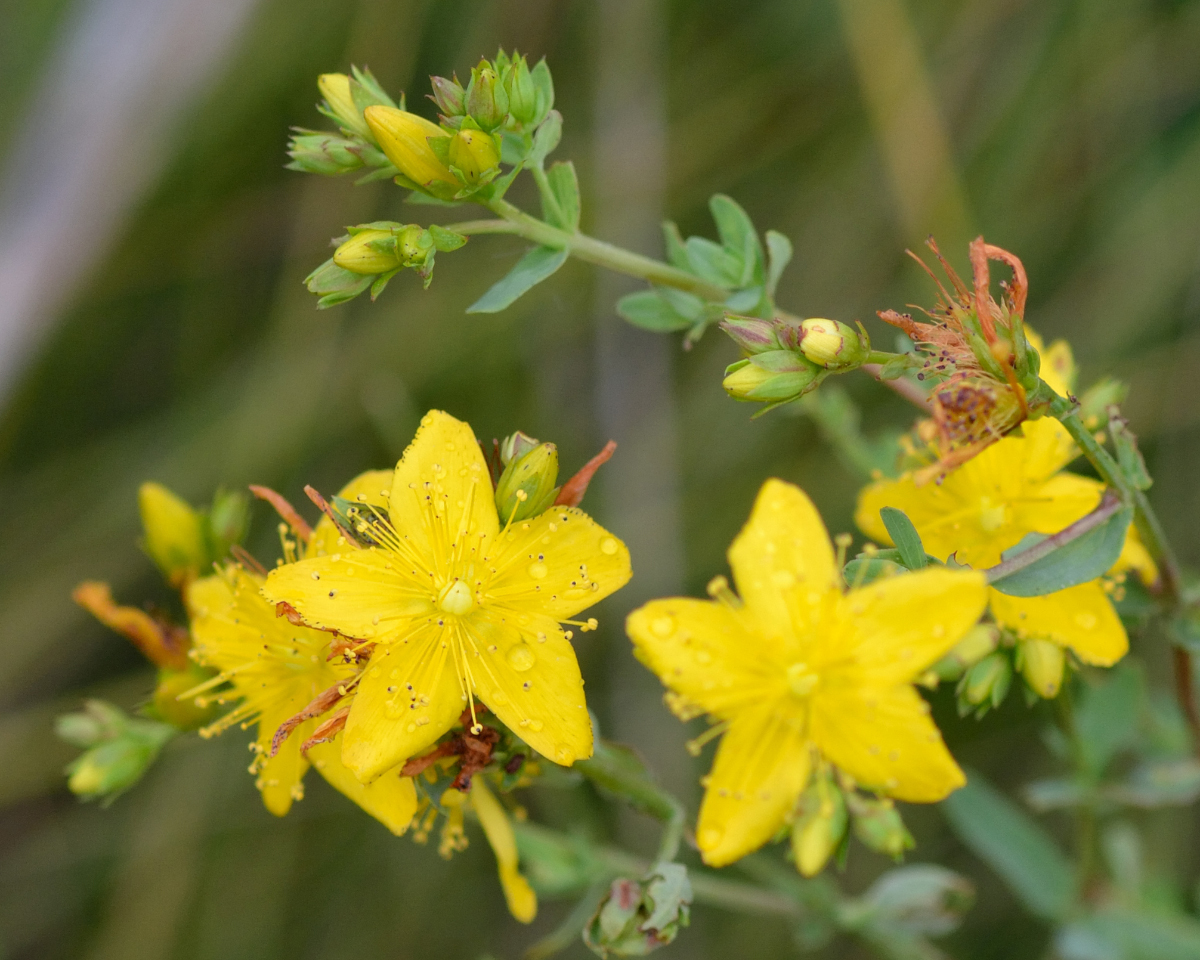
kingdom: Plantae
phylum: Tracheophyta
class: Magnoliopsida
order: Malpighiales
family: Hypericaceae
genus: Hypericum
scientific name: Hypericum perforatum
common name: Common st. johnswort
